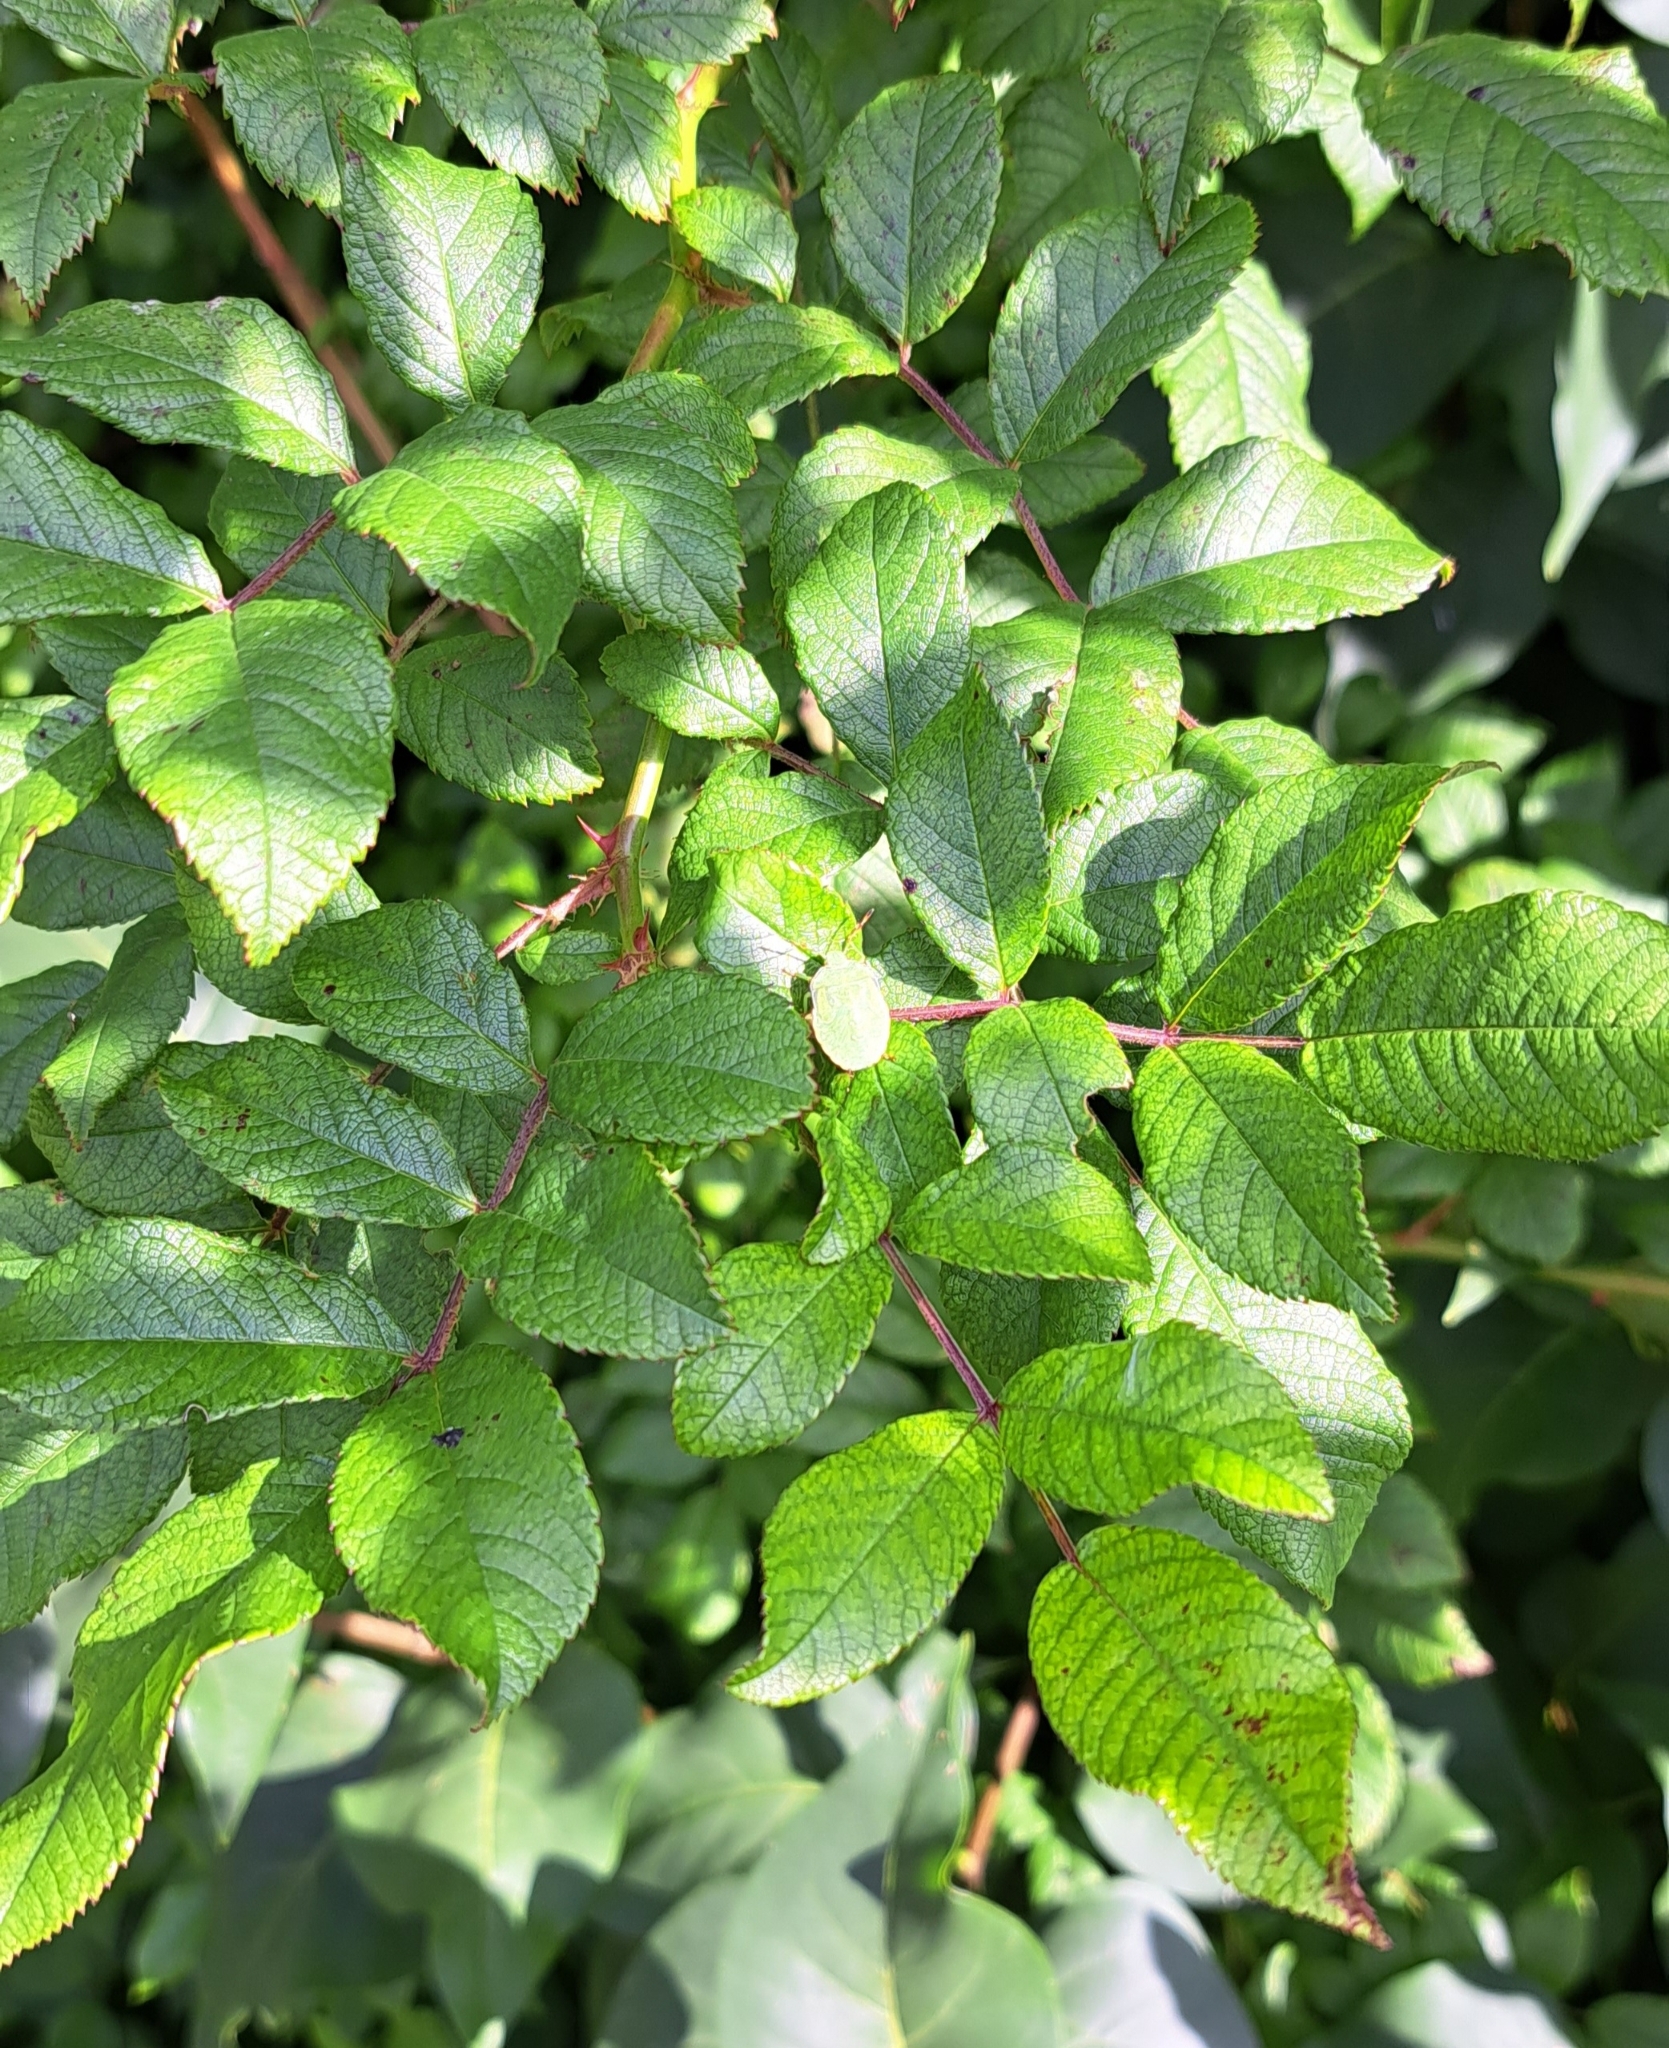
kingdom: Plantae
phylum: Tracheophyta
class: Magnoliopsida
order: Rosales
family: Rosaceae
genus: Rosa
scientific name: Rosa multiflora
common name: Multiflora rose
